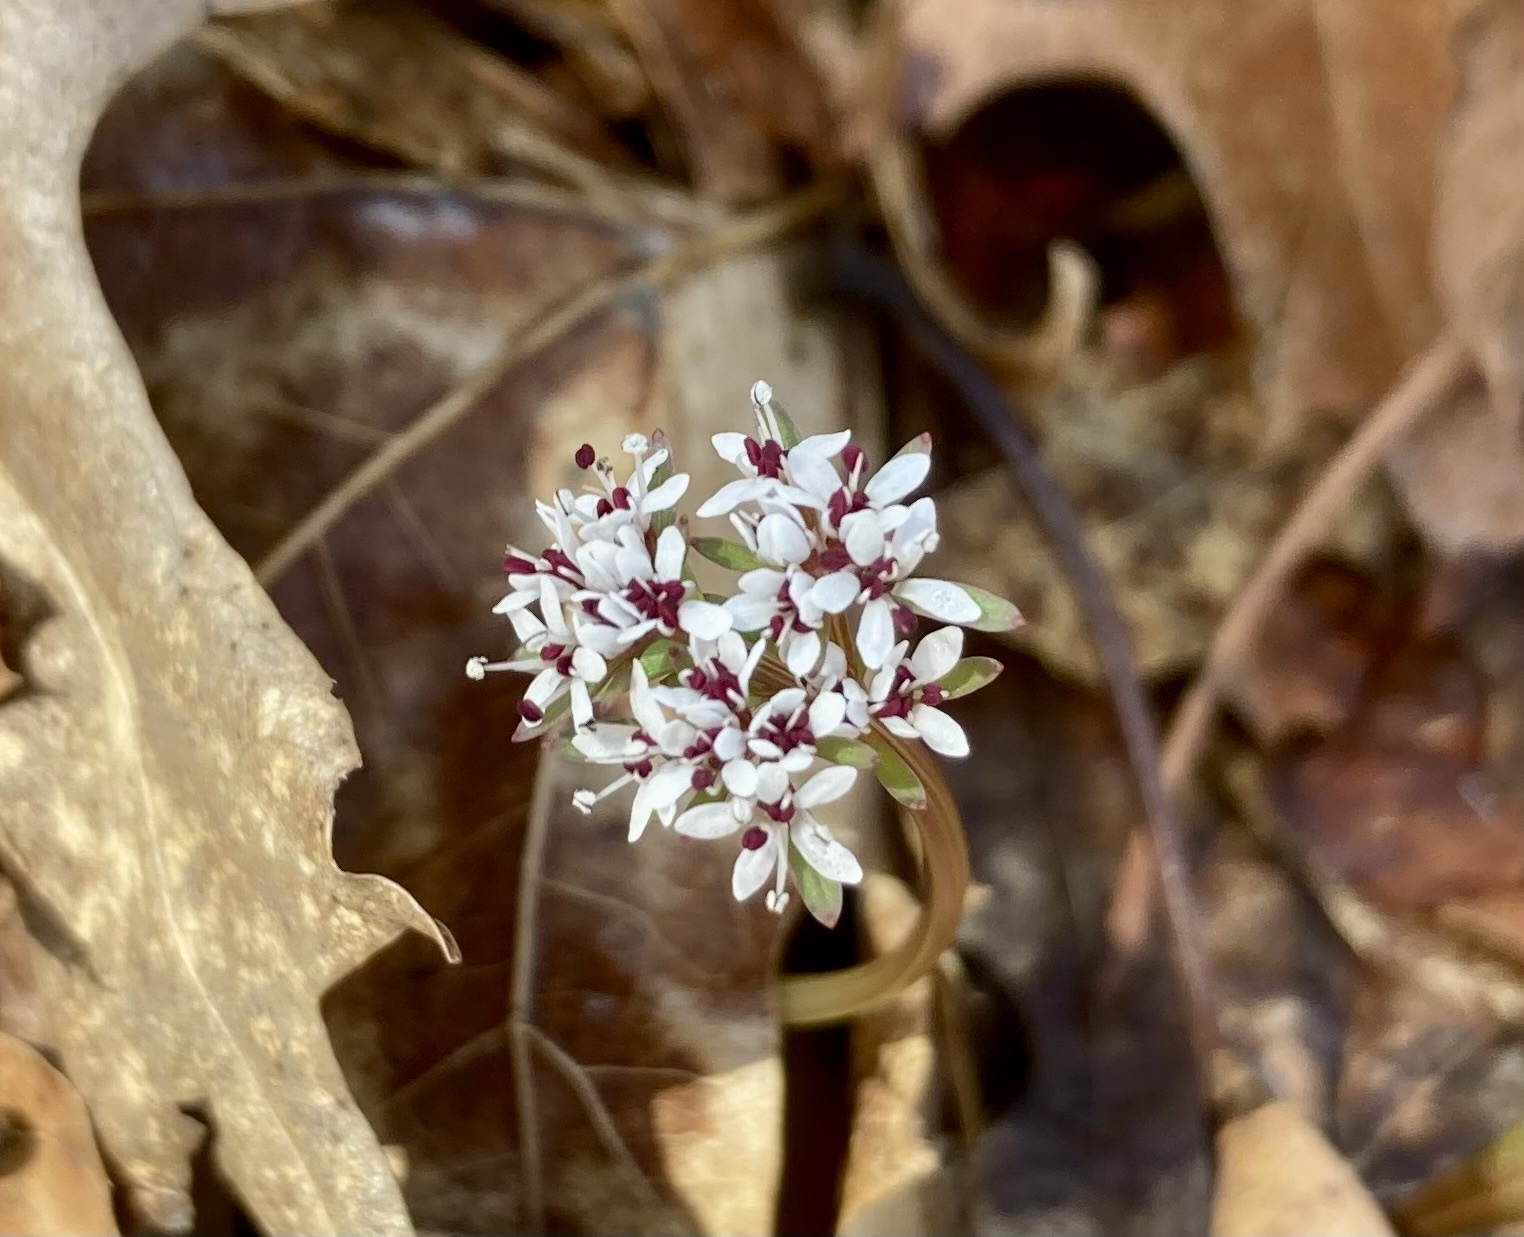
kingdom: Plantae
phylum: Tracheophyta
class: Magnoliopsida
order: Apiales
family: Apiaceae
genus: Erigenia
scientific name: Erigenia bulbosa
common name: Pepper-and-salt
